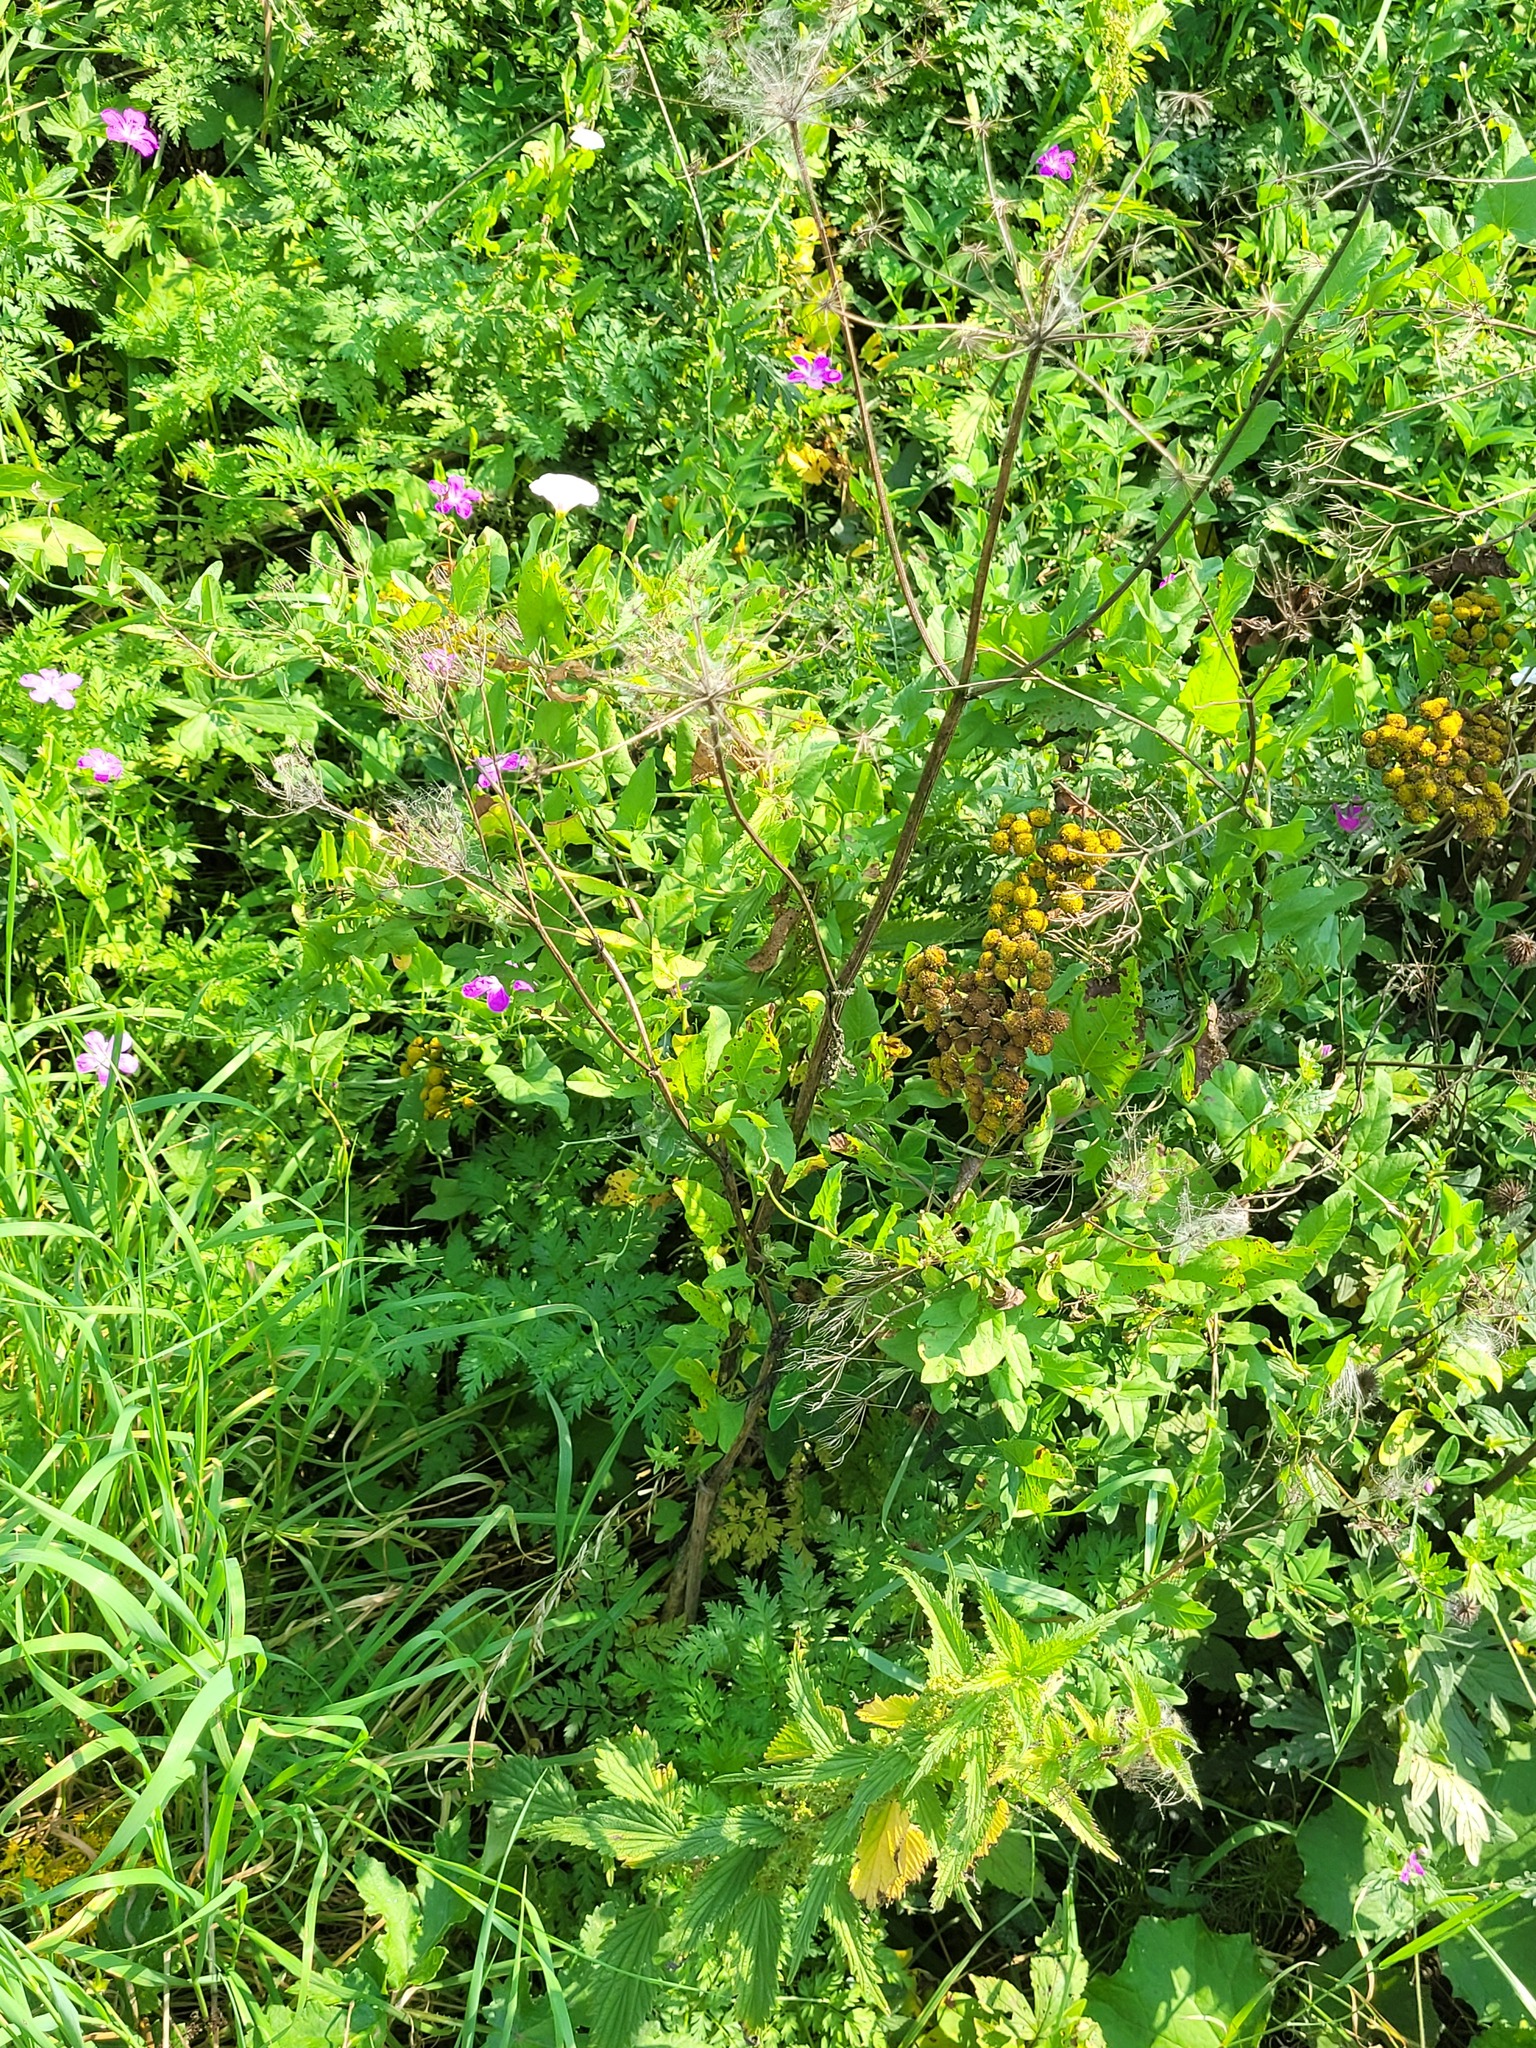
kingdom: Plantae
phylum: Tracheophyta
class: Magnoliopsida
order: Apiales
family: Apiaceae
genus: Anthriscus
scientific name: Anthriscus sylvestris
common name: Cow parsley
